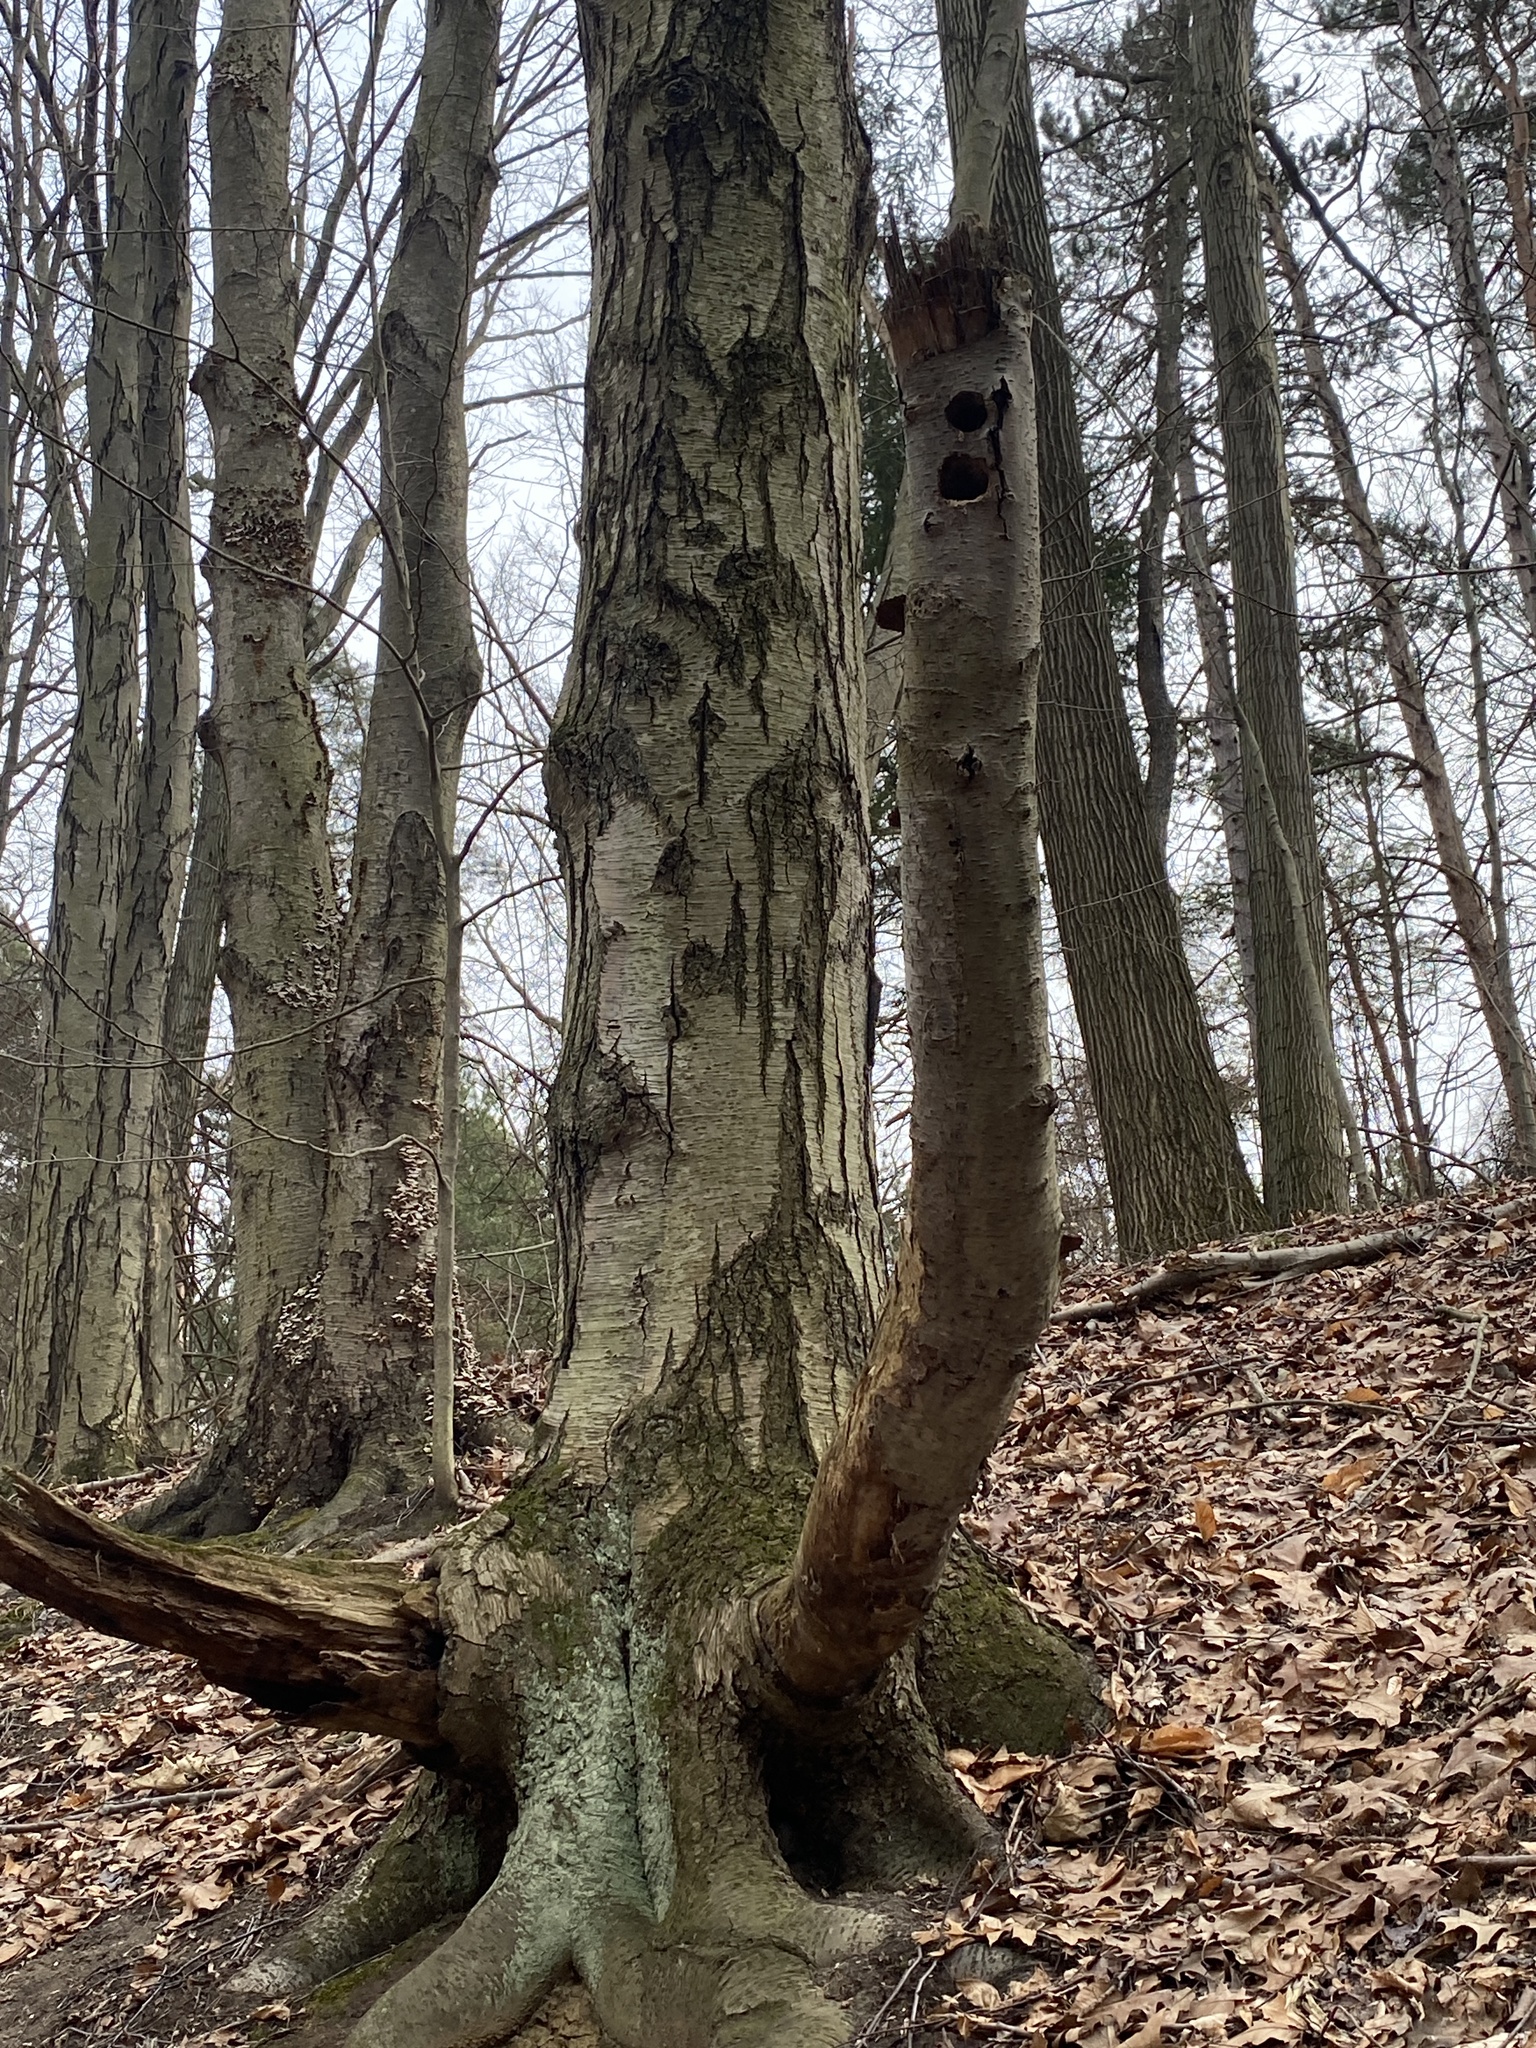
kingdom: Plantae
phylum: Tracheophyta
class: Magnoliopsida
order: Fagales
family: Betulaceae
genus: Betula
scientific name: Betula lenta
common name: Black birch
